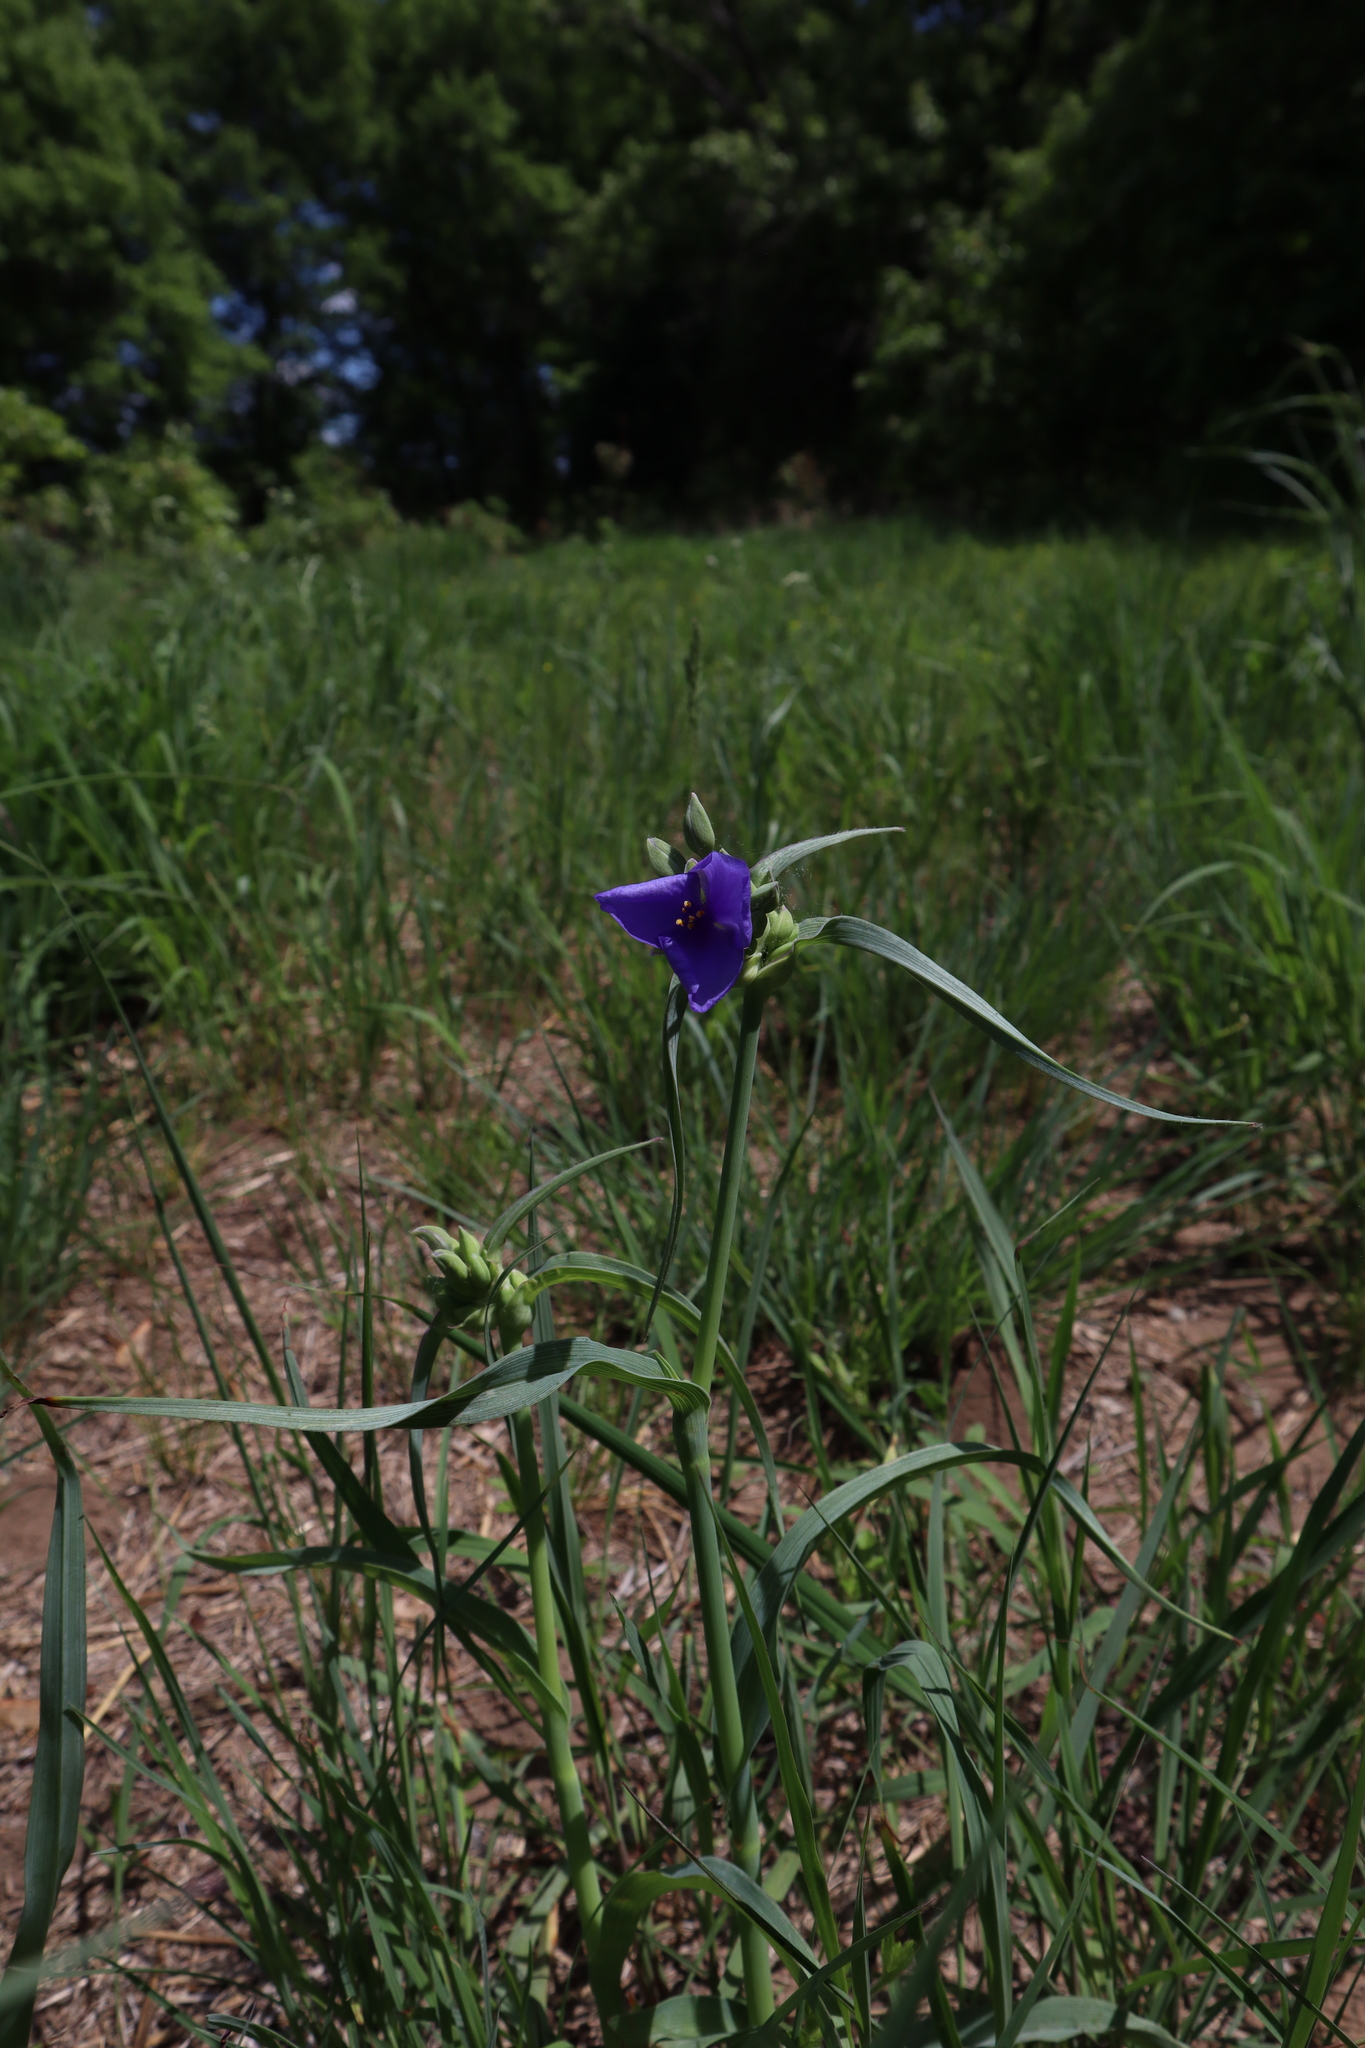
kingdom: Plantae
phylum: Tracheophyta
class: Liliopsida
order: Commelinales
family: Commelinaceae
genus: Tradescantia
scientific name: Tradescantia ohiensis
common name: Ohio spiderwort
